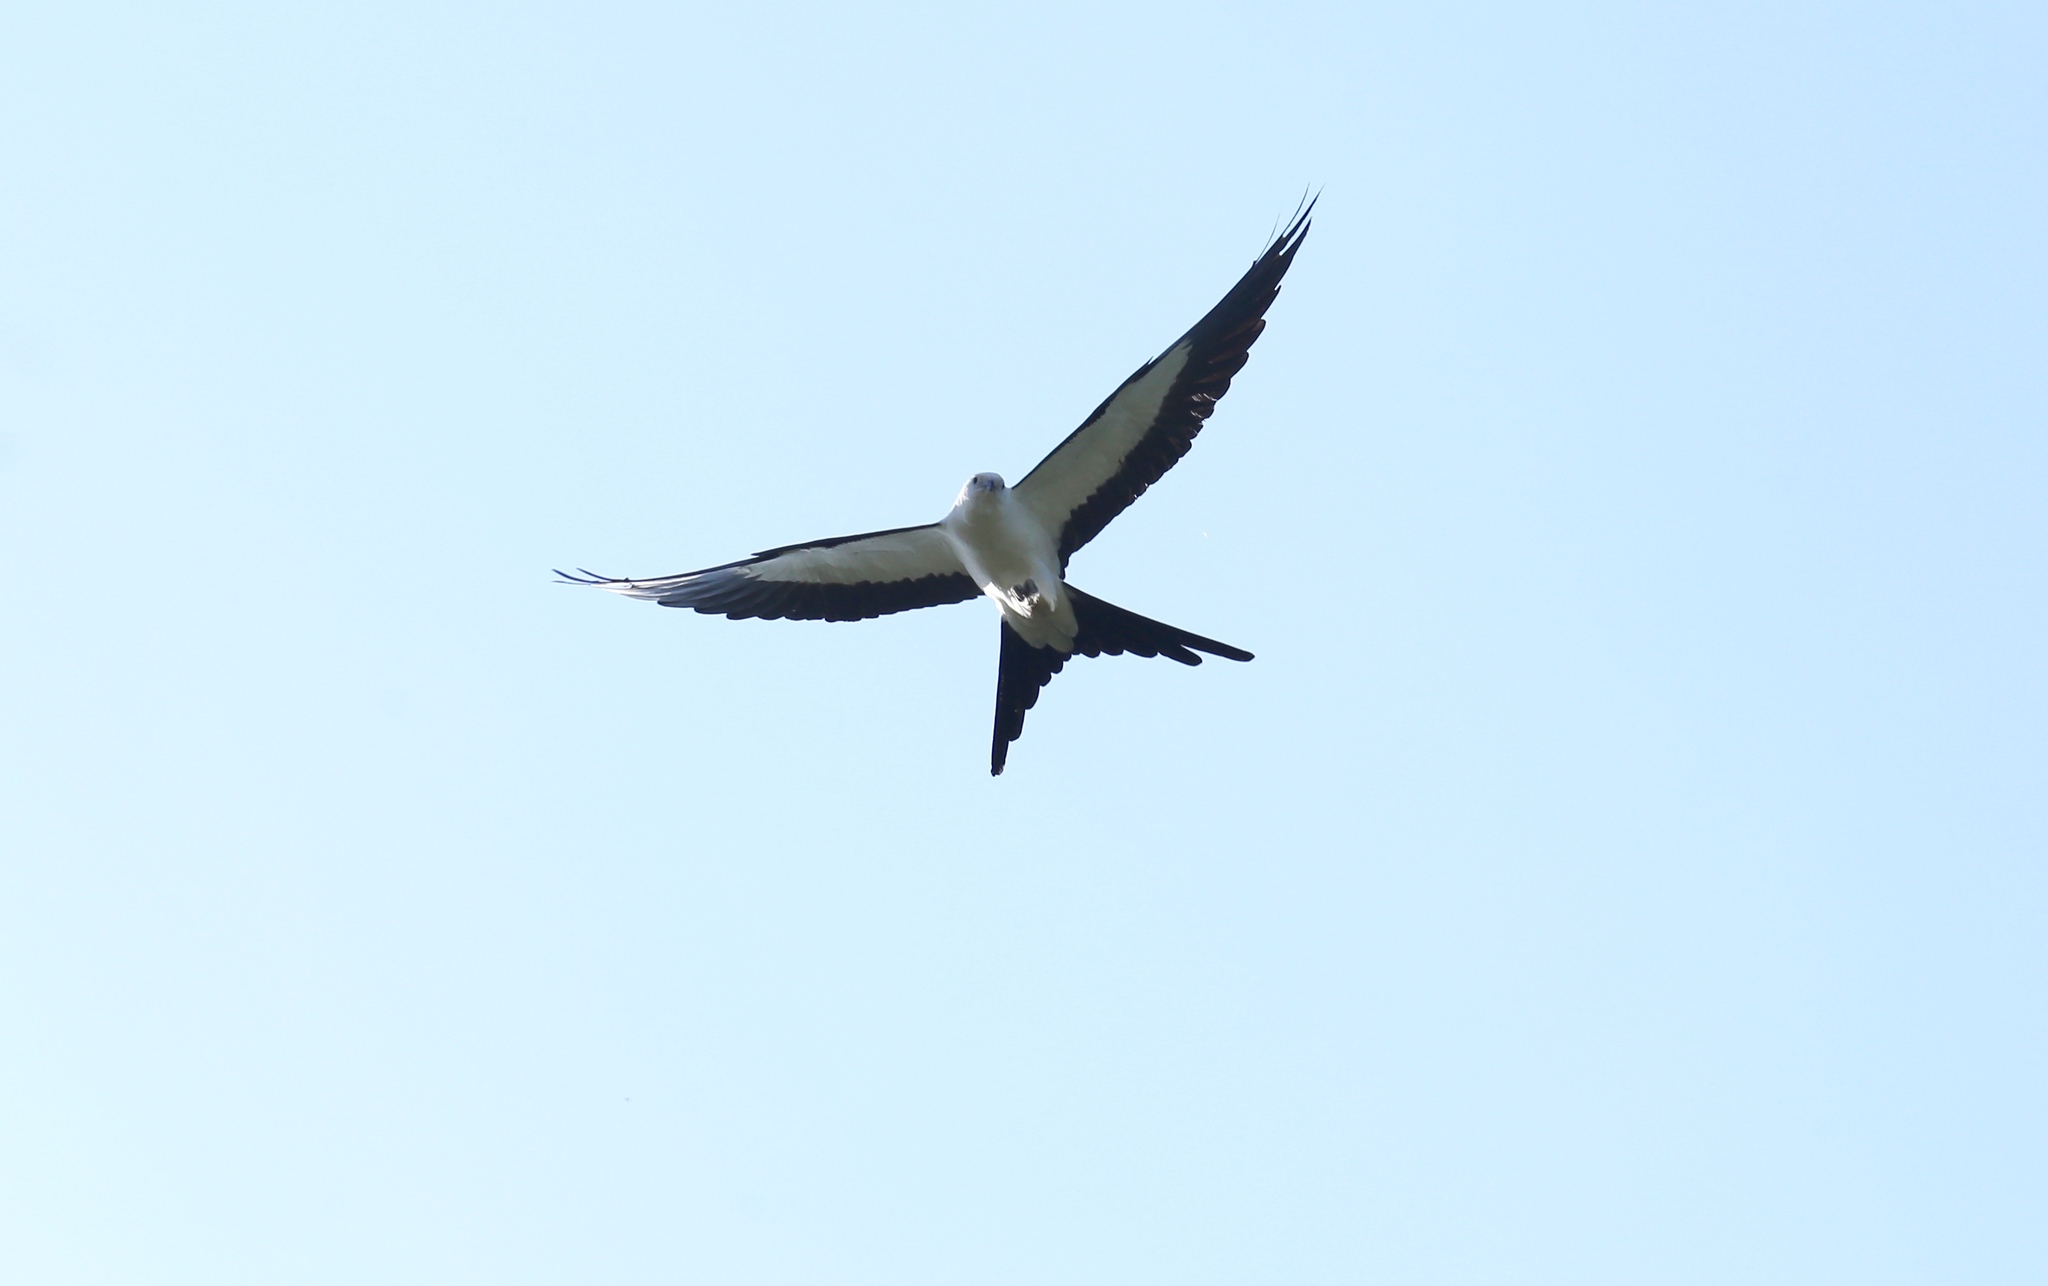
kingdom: Animalia
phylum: Chordata
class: Aves
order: Accipitriformes
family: Accipitridae
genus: Elanoides
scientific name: Elanoides forficatus
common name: Swallow-tailed kite
